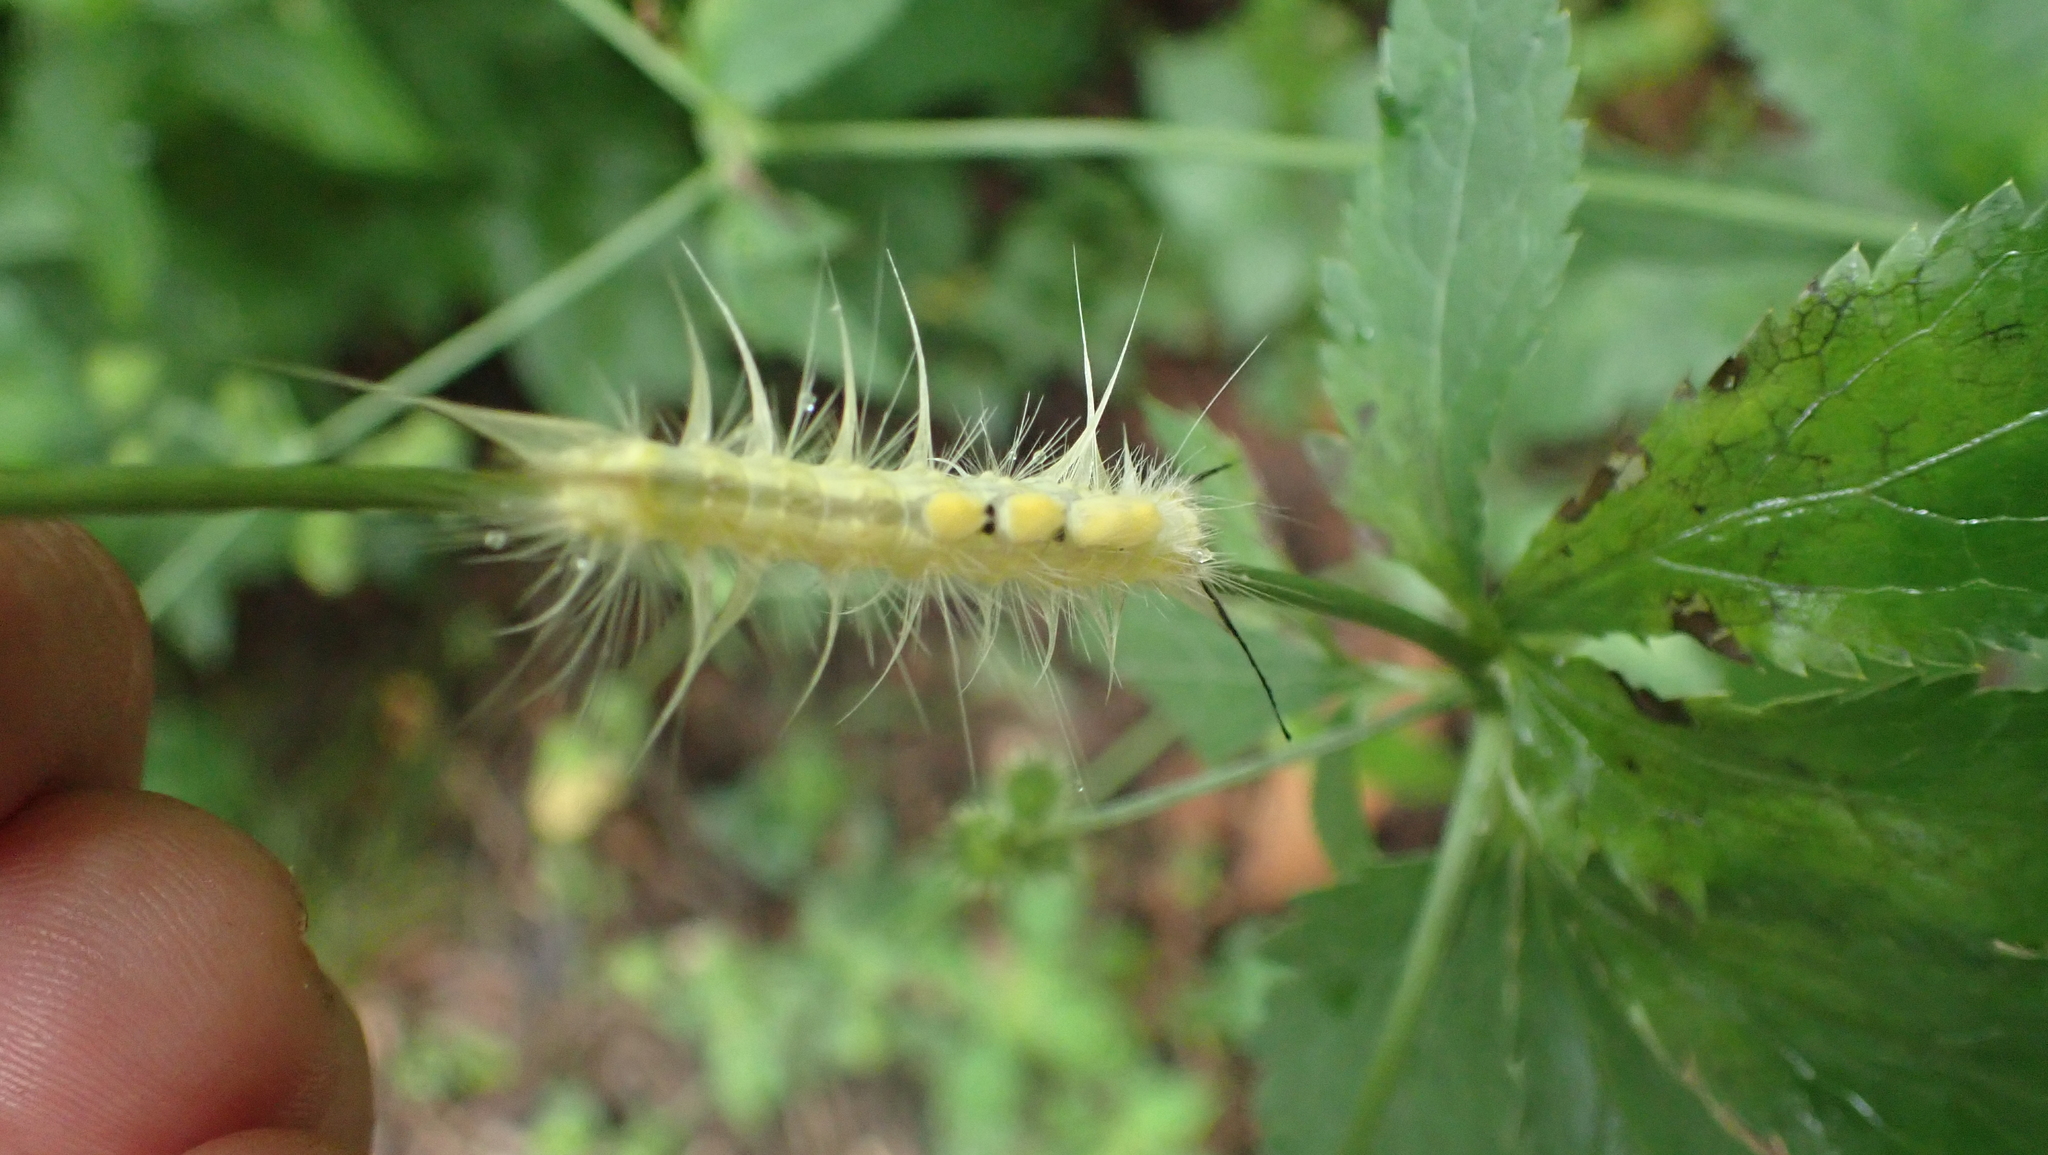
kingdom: Animalia
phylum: Arthropoda
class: Insecta
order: Lepidoptera
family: Erebidae
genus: Orgyia
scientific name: Orgyia definita
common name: Definite tussock moth
